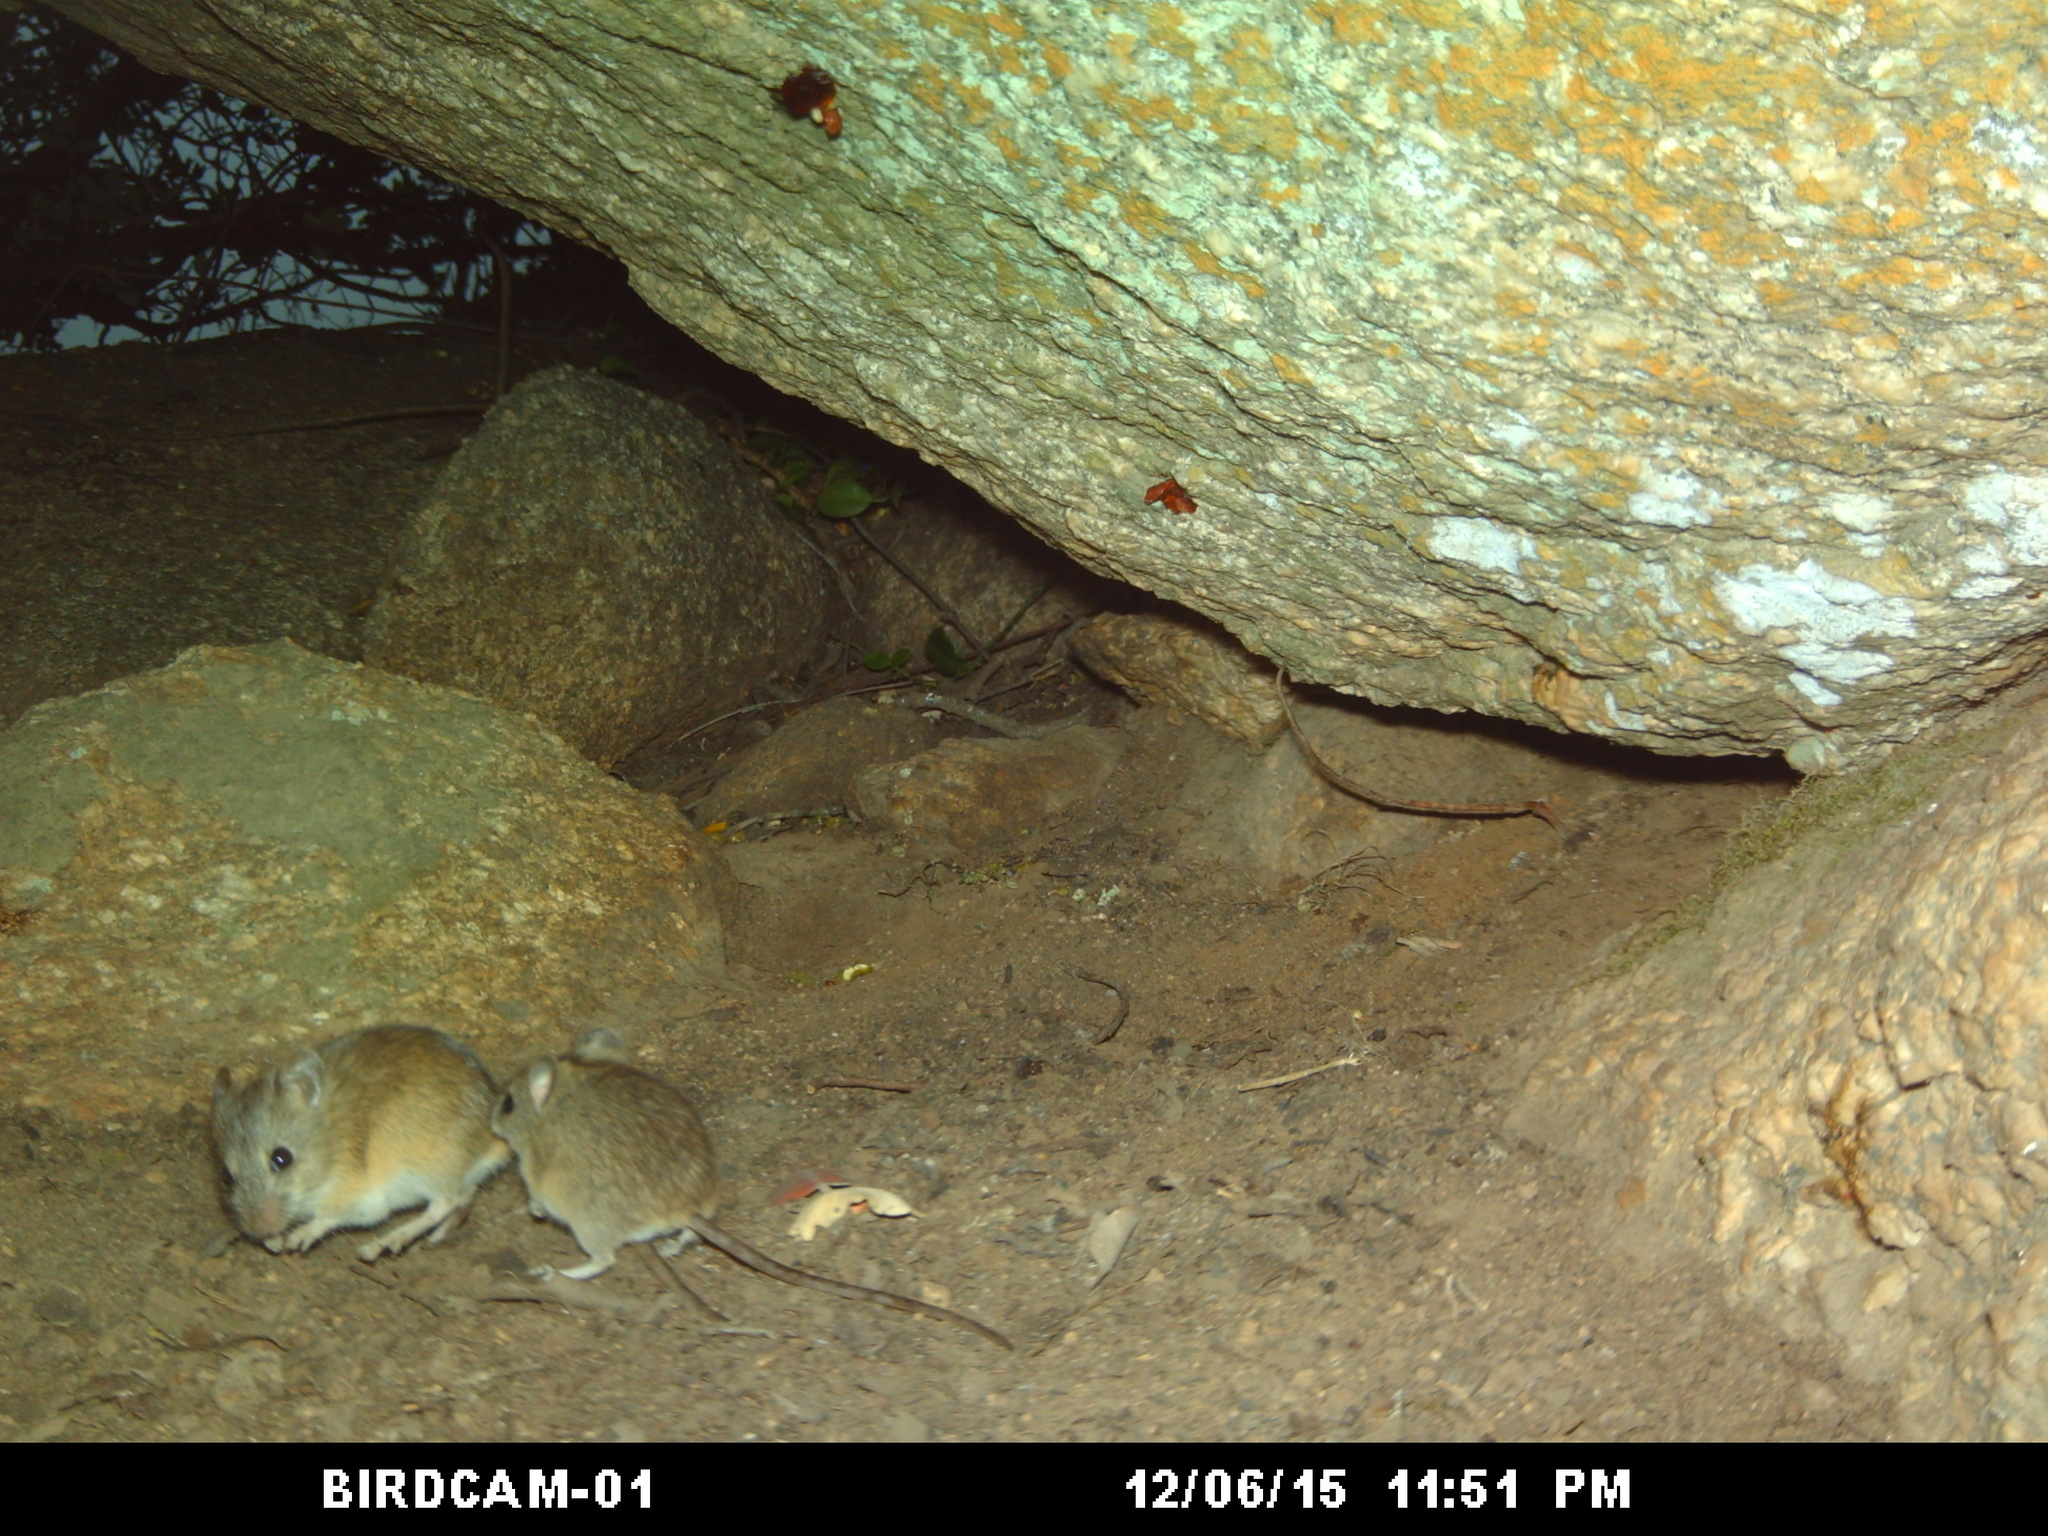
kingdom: Animalia
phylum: Chordata
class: Mammalia
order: Rodentia
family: Muridae
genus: Micaelamys
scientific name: Micaelamys namaquensis
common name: Namaqua micaelamys
